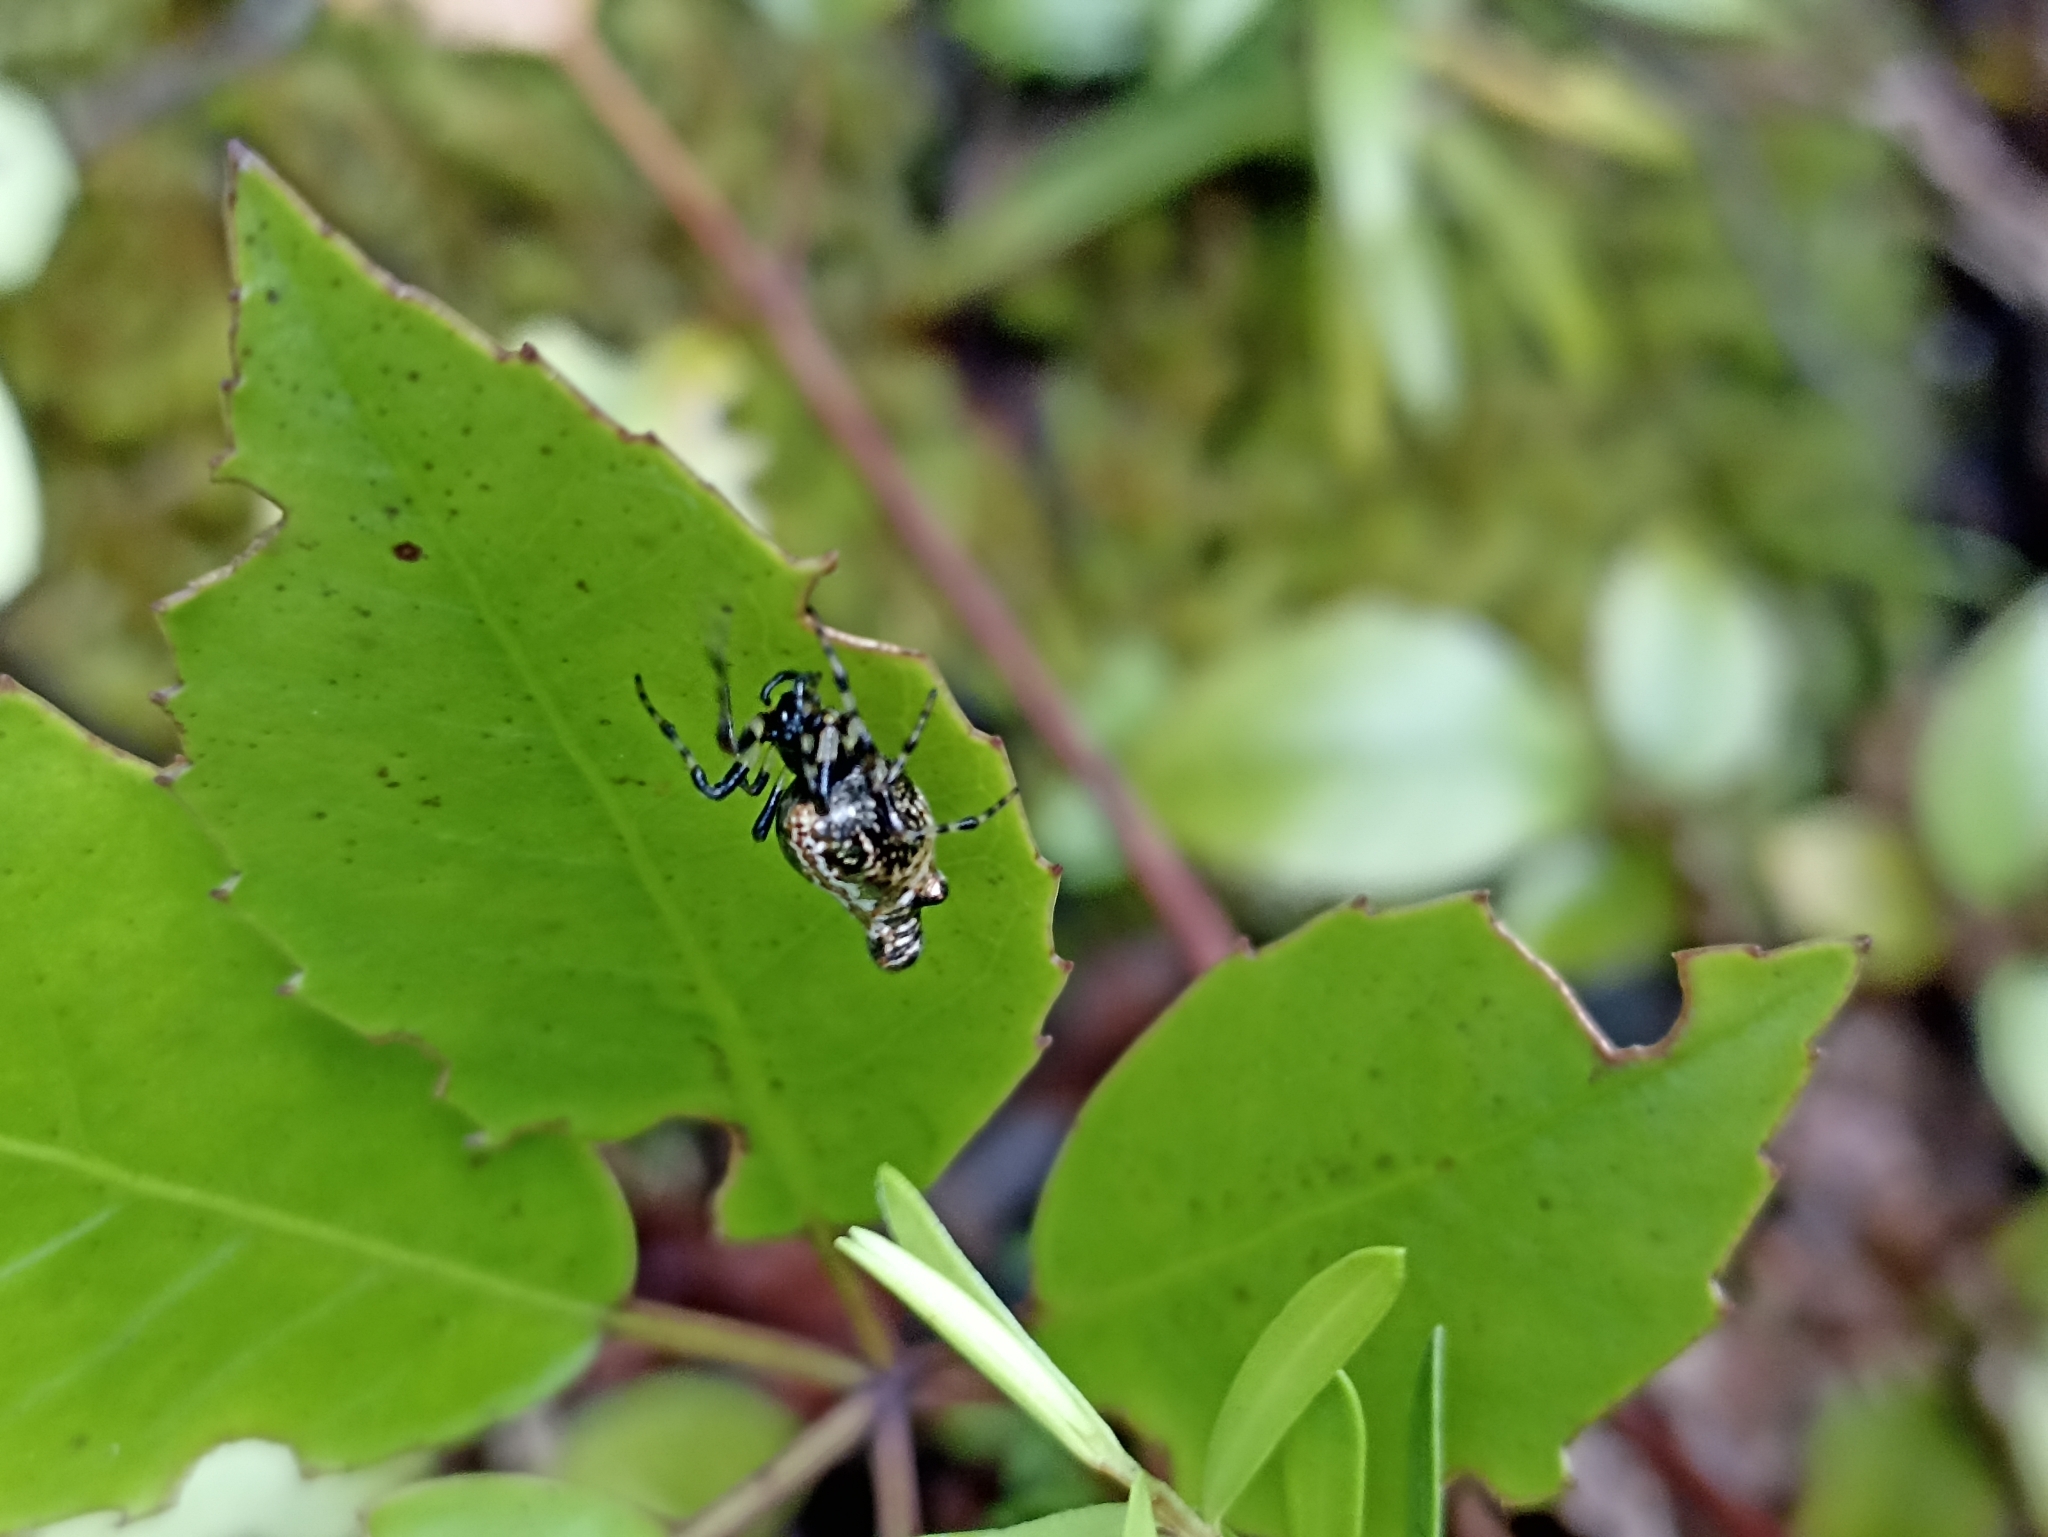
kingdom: Animalia
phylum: Arthropoda
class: Arachnida
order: Araneae
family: Araneidae
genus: Cyclosa
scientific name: Cyclosa trilobata
